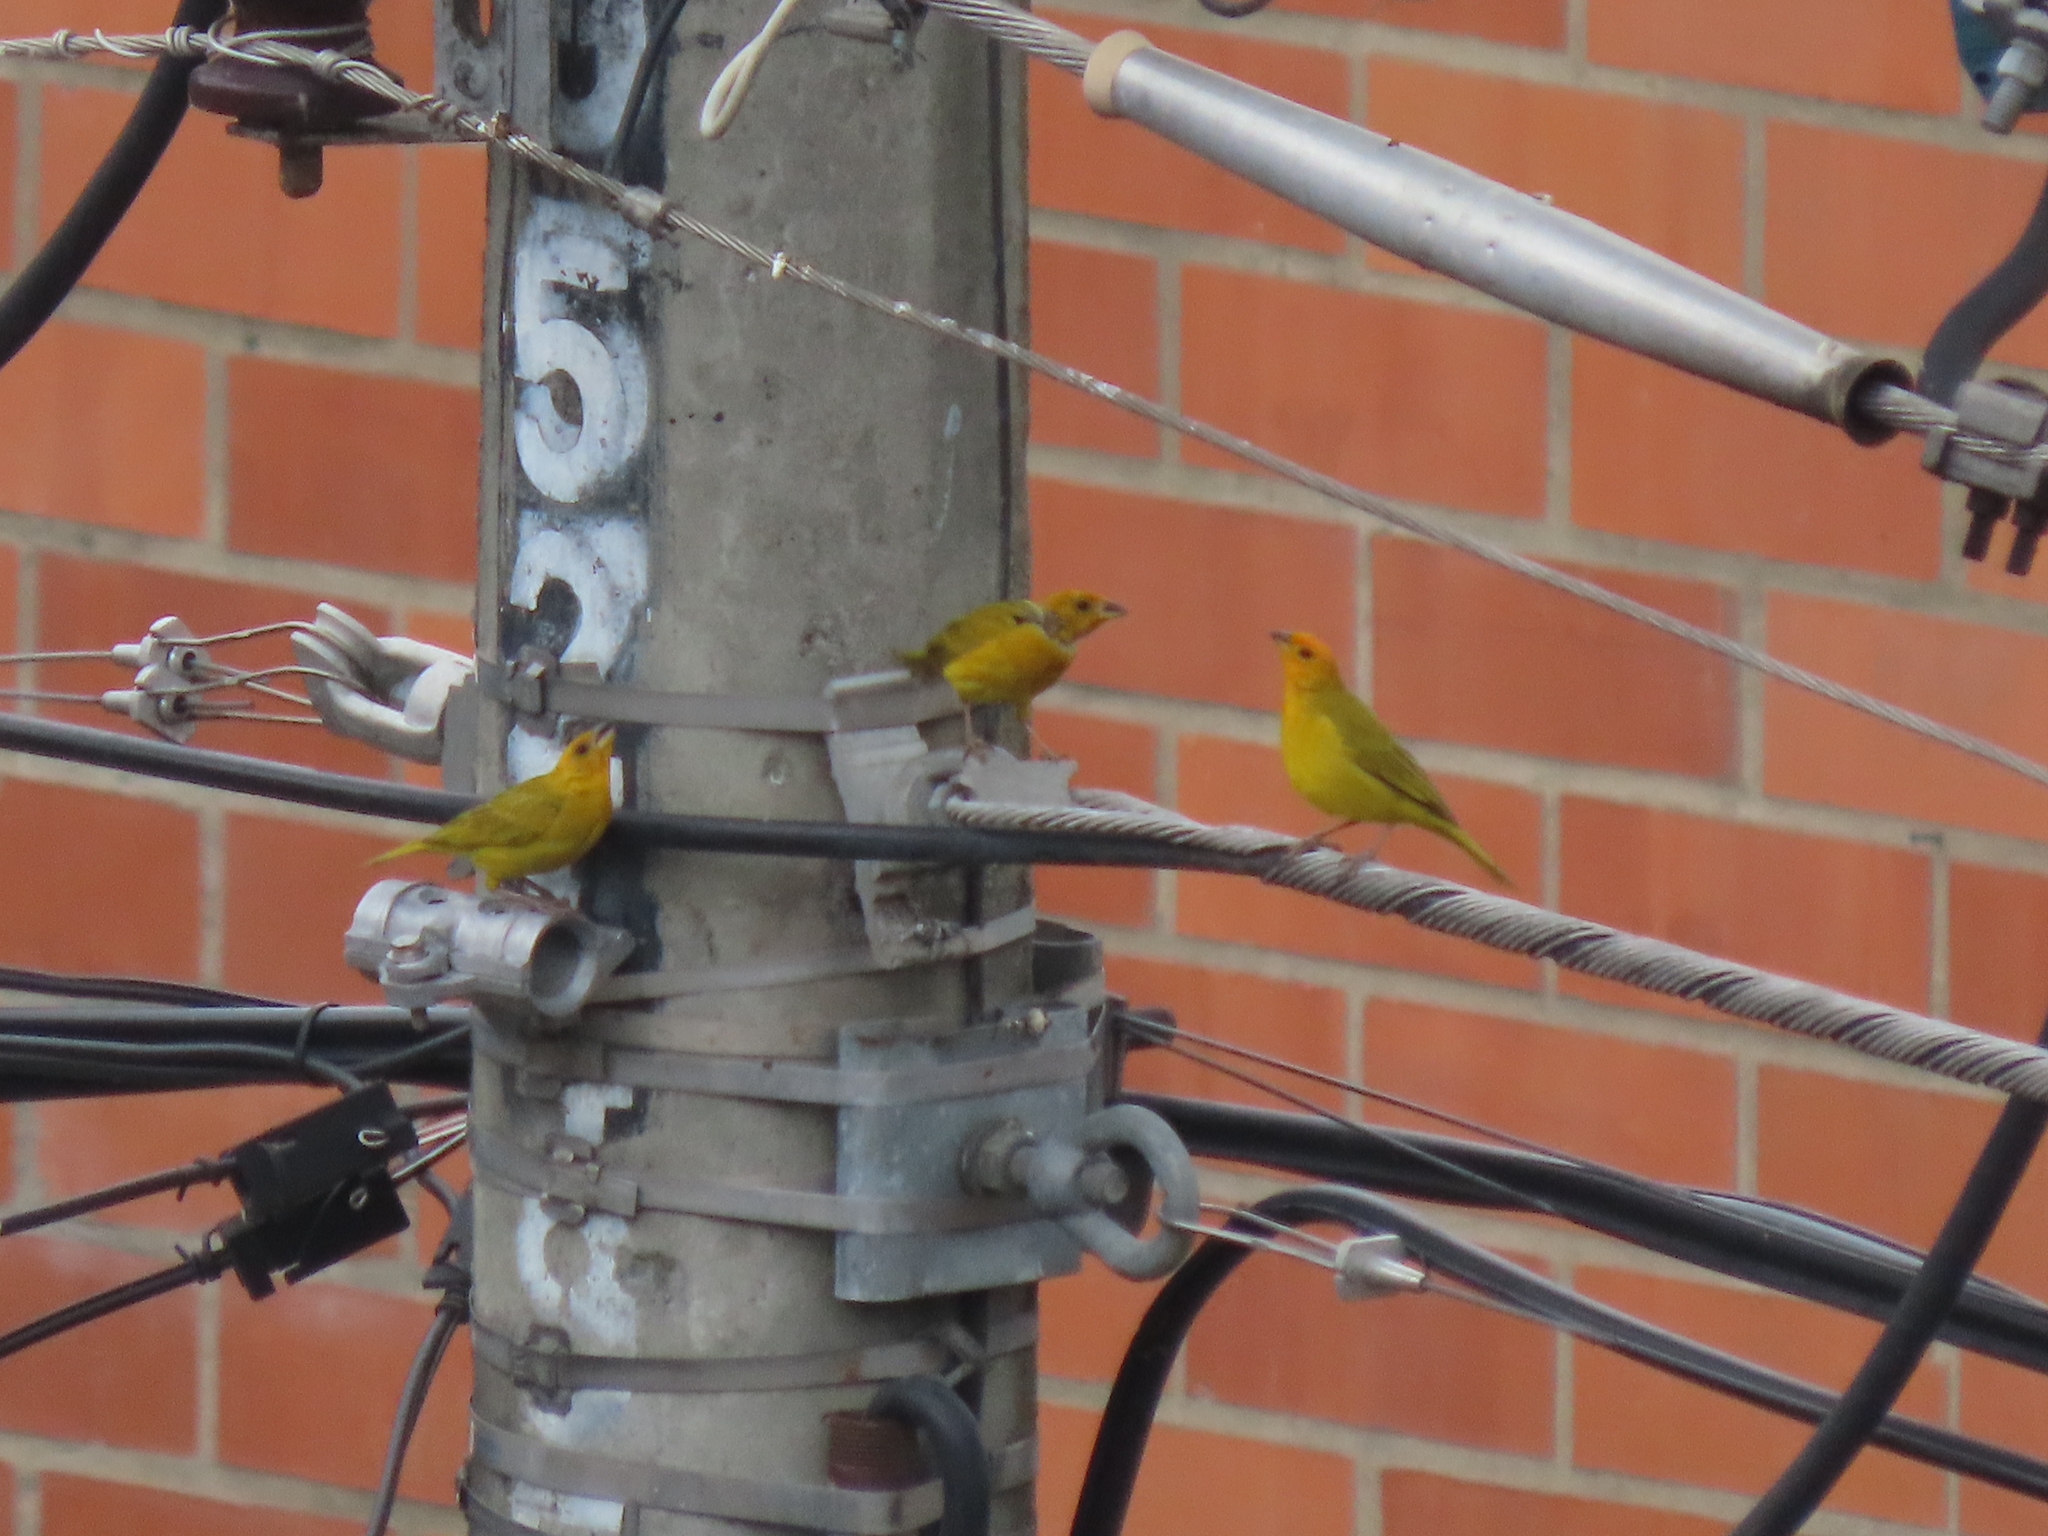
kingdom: Animalia
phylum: Chordata
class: Aves
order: Passeriformes
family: Thraupidae
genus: Sicalis
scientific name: Sicalis flaveola
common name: Saffron finch
